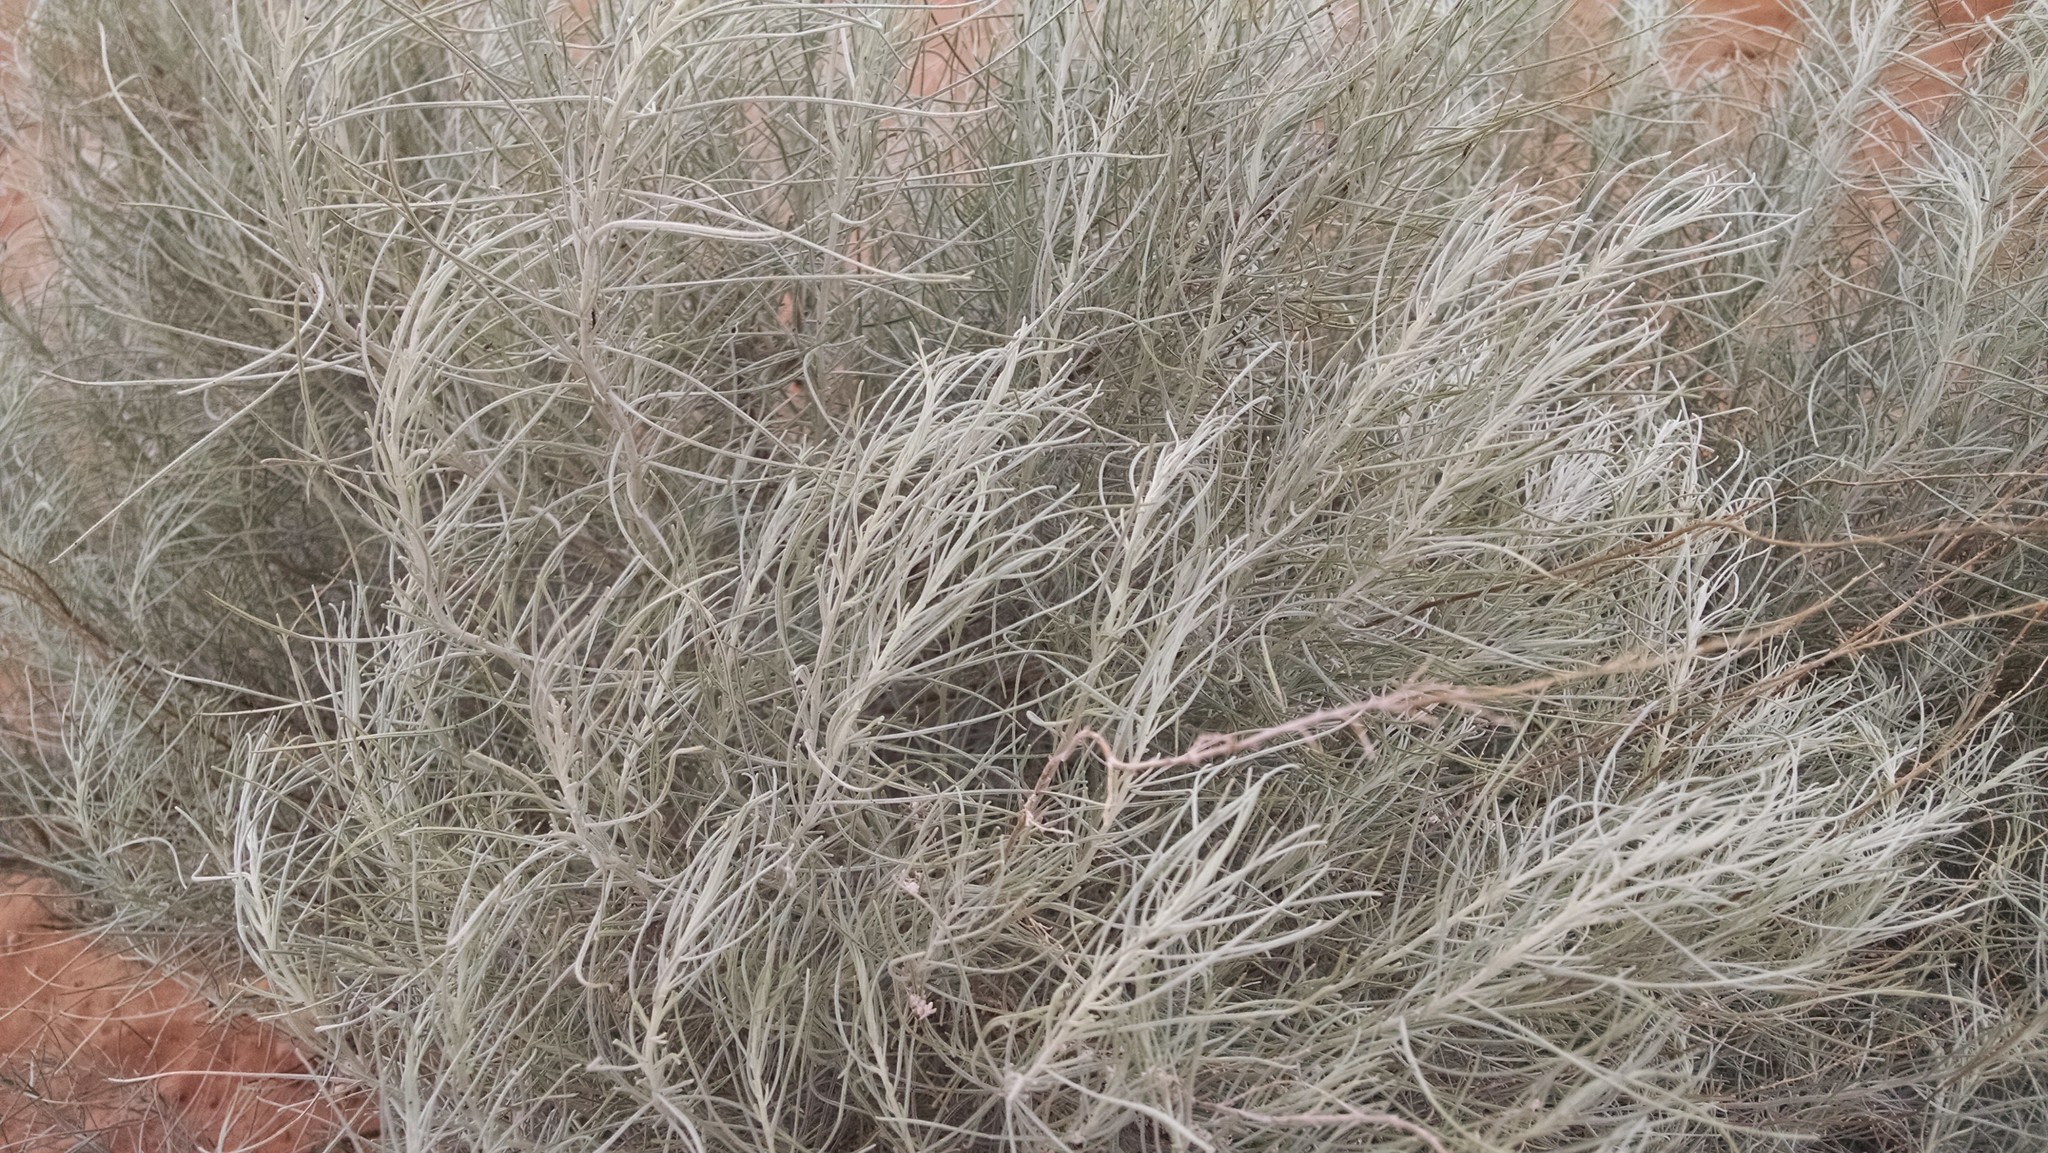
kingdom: Plantae
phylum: Tracheophyta
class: Magnoliopsida
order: Asterales
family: Asteraceae
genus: Artemisia
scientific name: Artemisia filifolia
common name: Sand-sage
